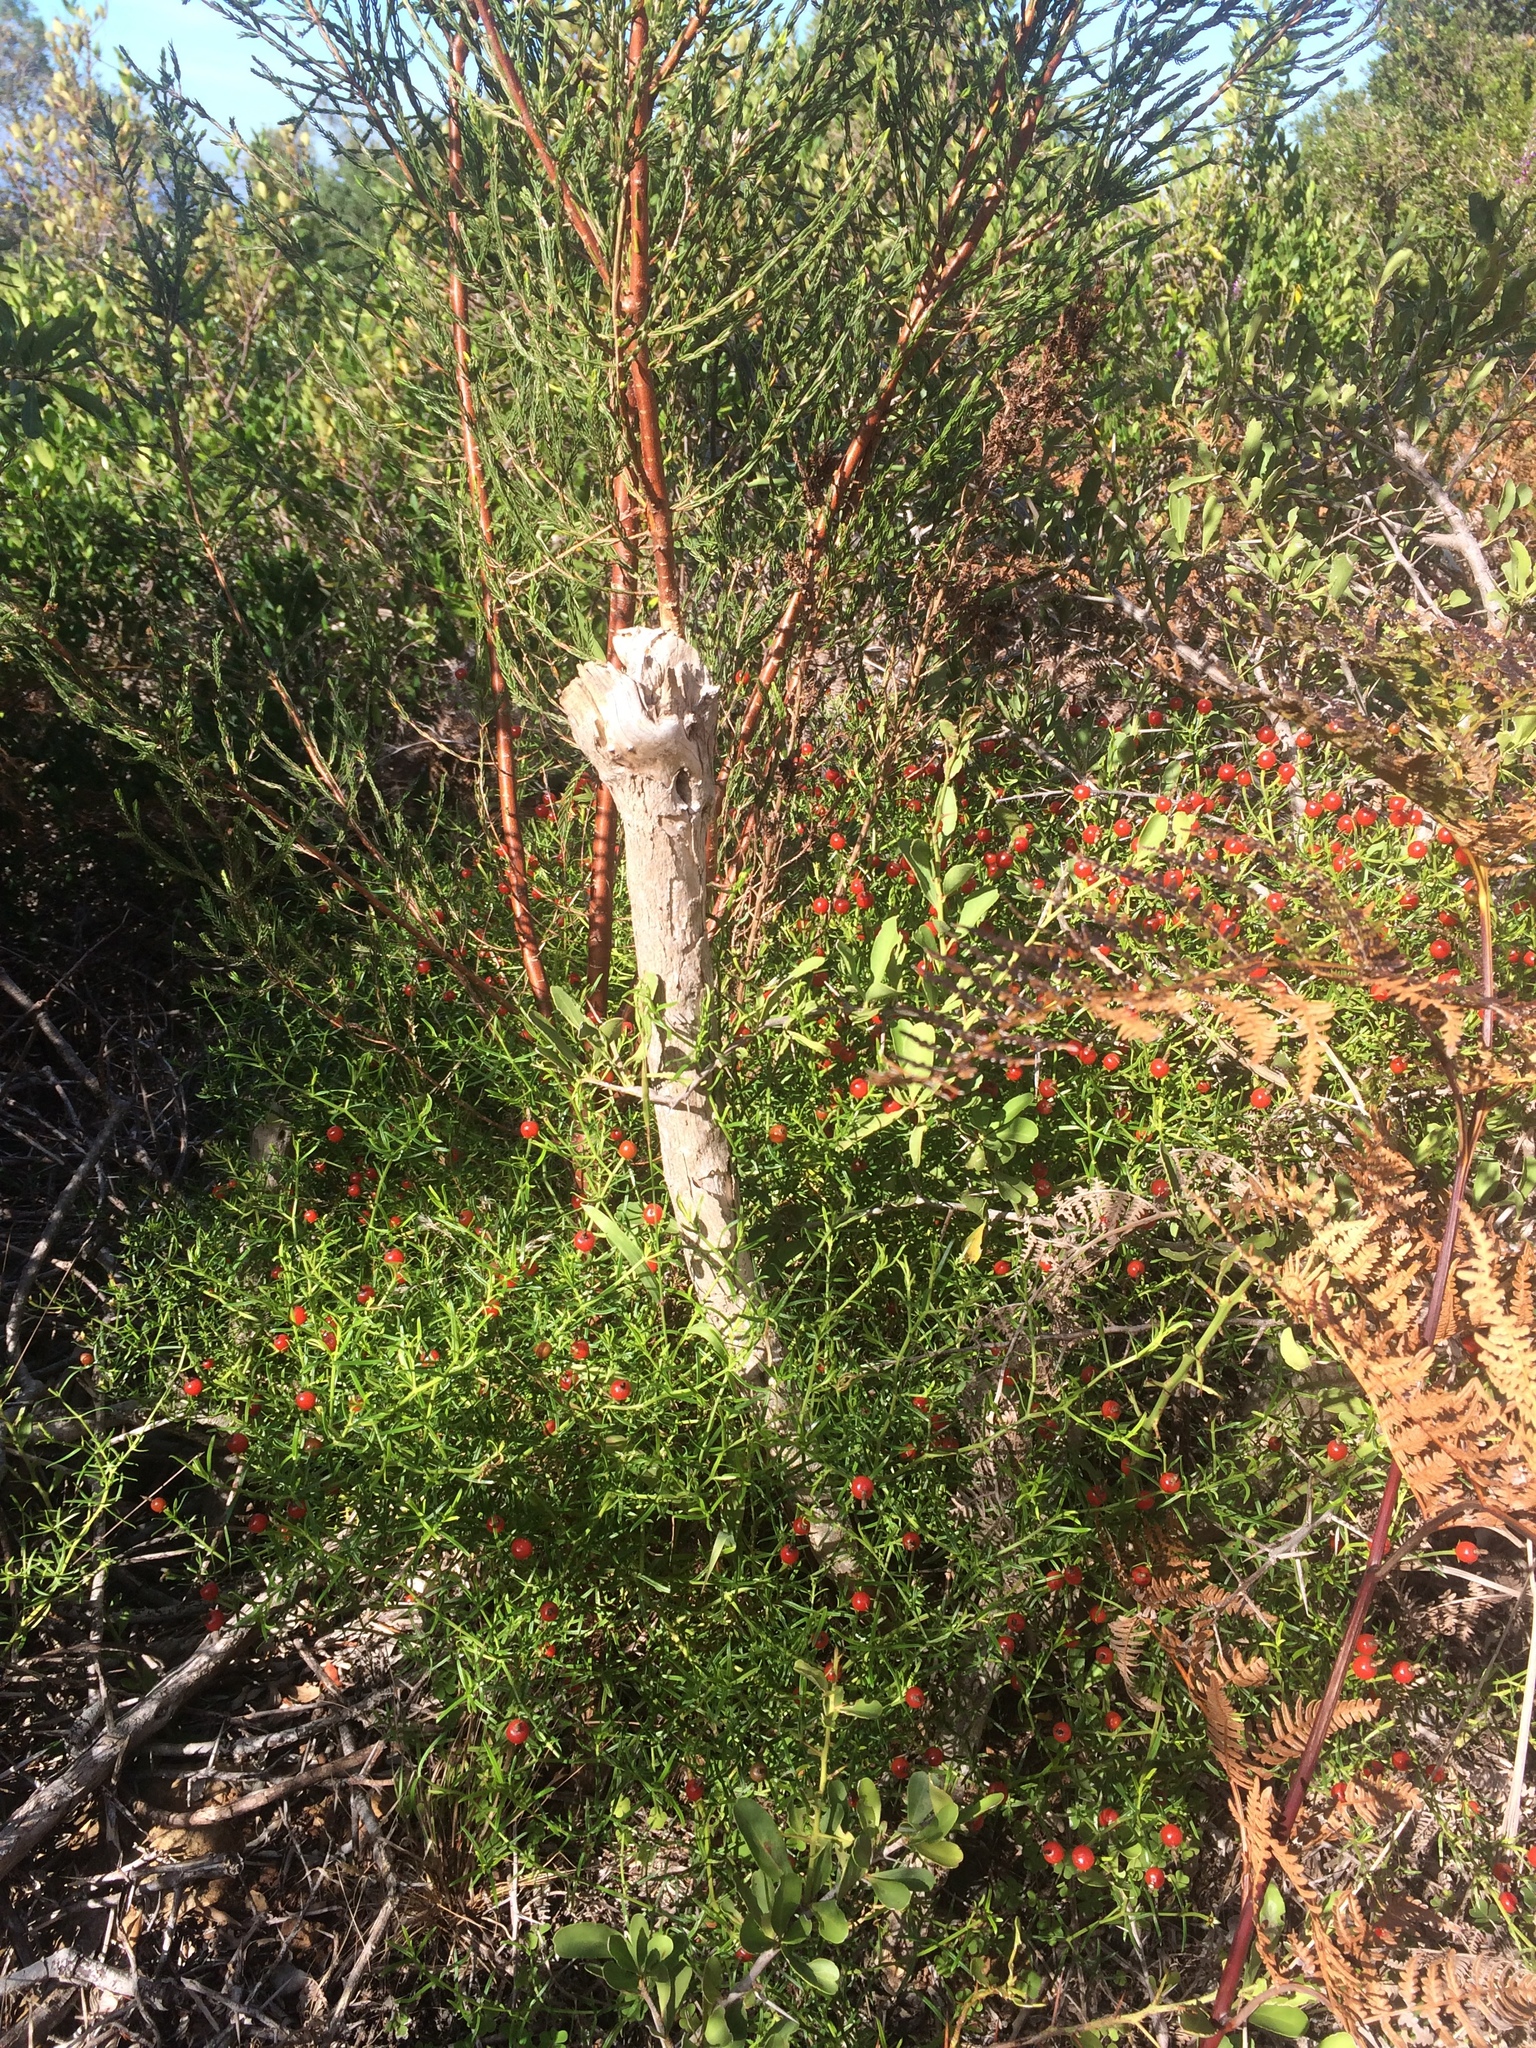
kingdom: Plantae
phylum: Tracheophyta
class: Magnoliopsida
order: Gentianales
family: Gentianaceae
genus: Chironia
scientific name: Chironia baccifera
